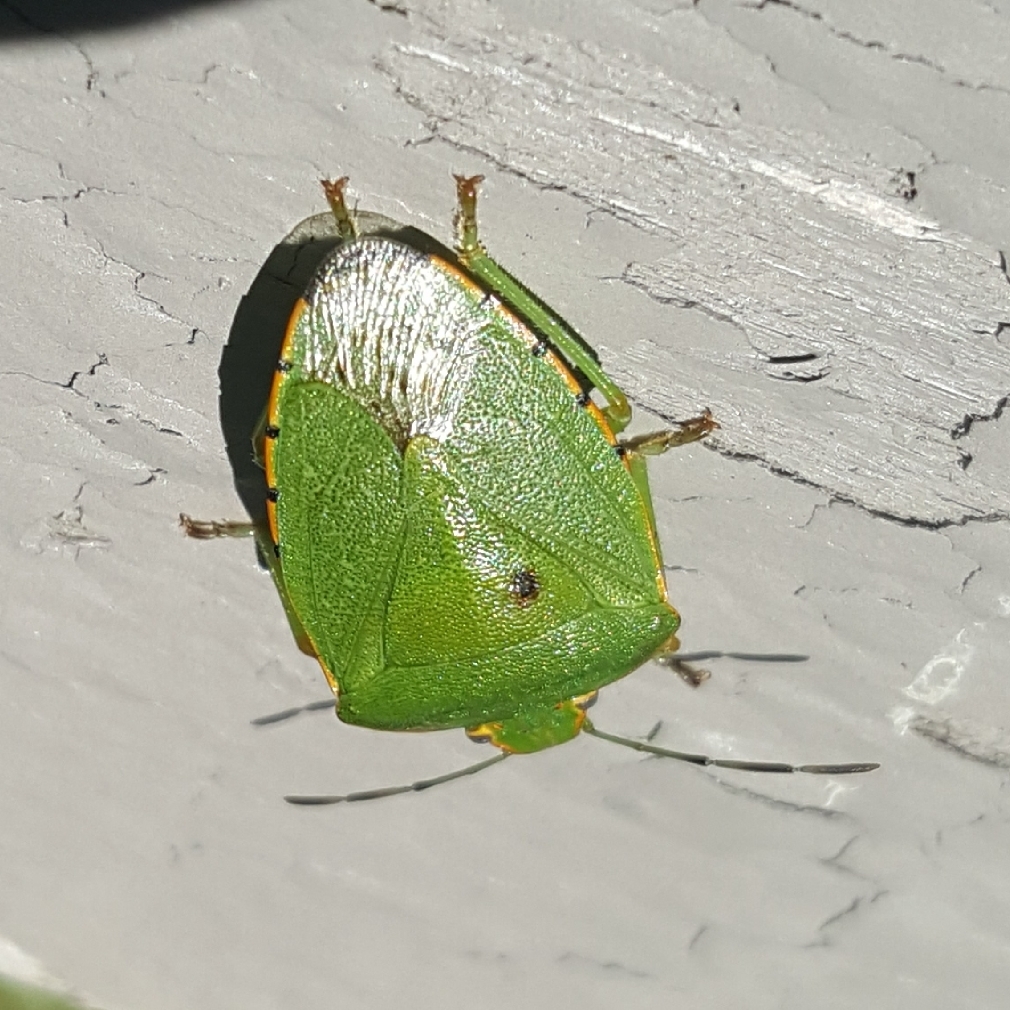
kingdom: Animalia
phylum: Arthropoda
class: Insecta
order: Hemiptera
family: Pentatomidae
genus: Chinavia
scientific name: Chinavia hilaris
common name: Green stink bug
